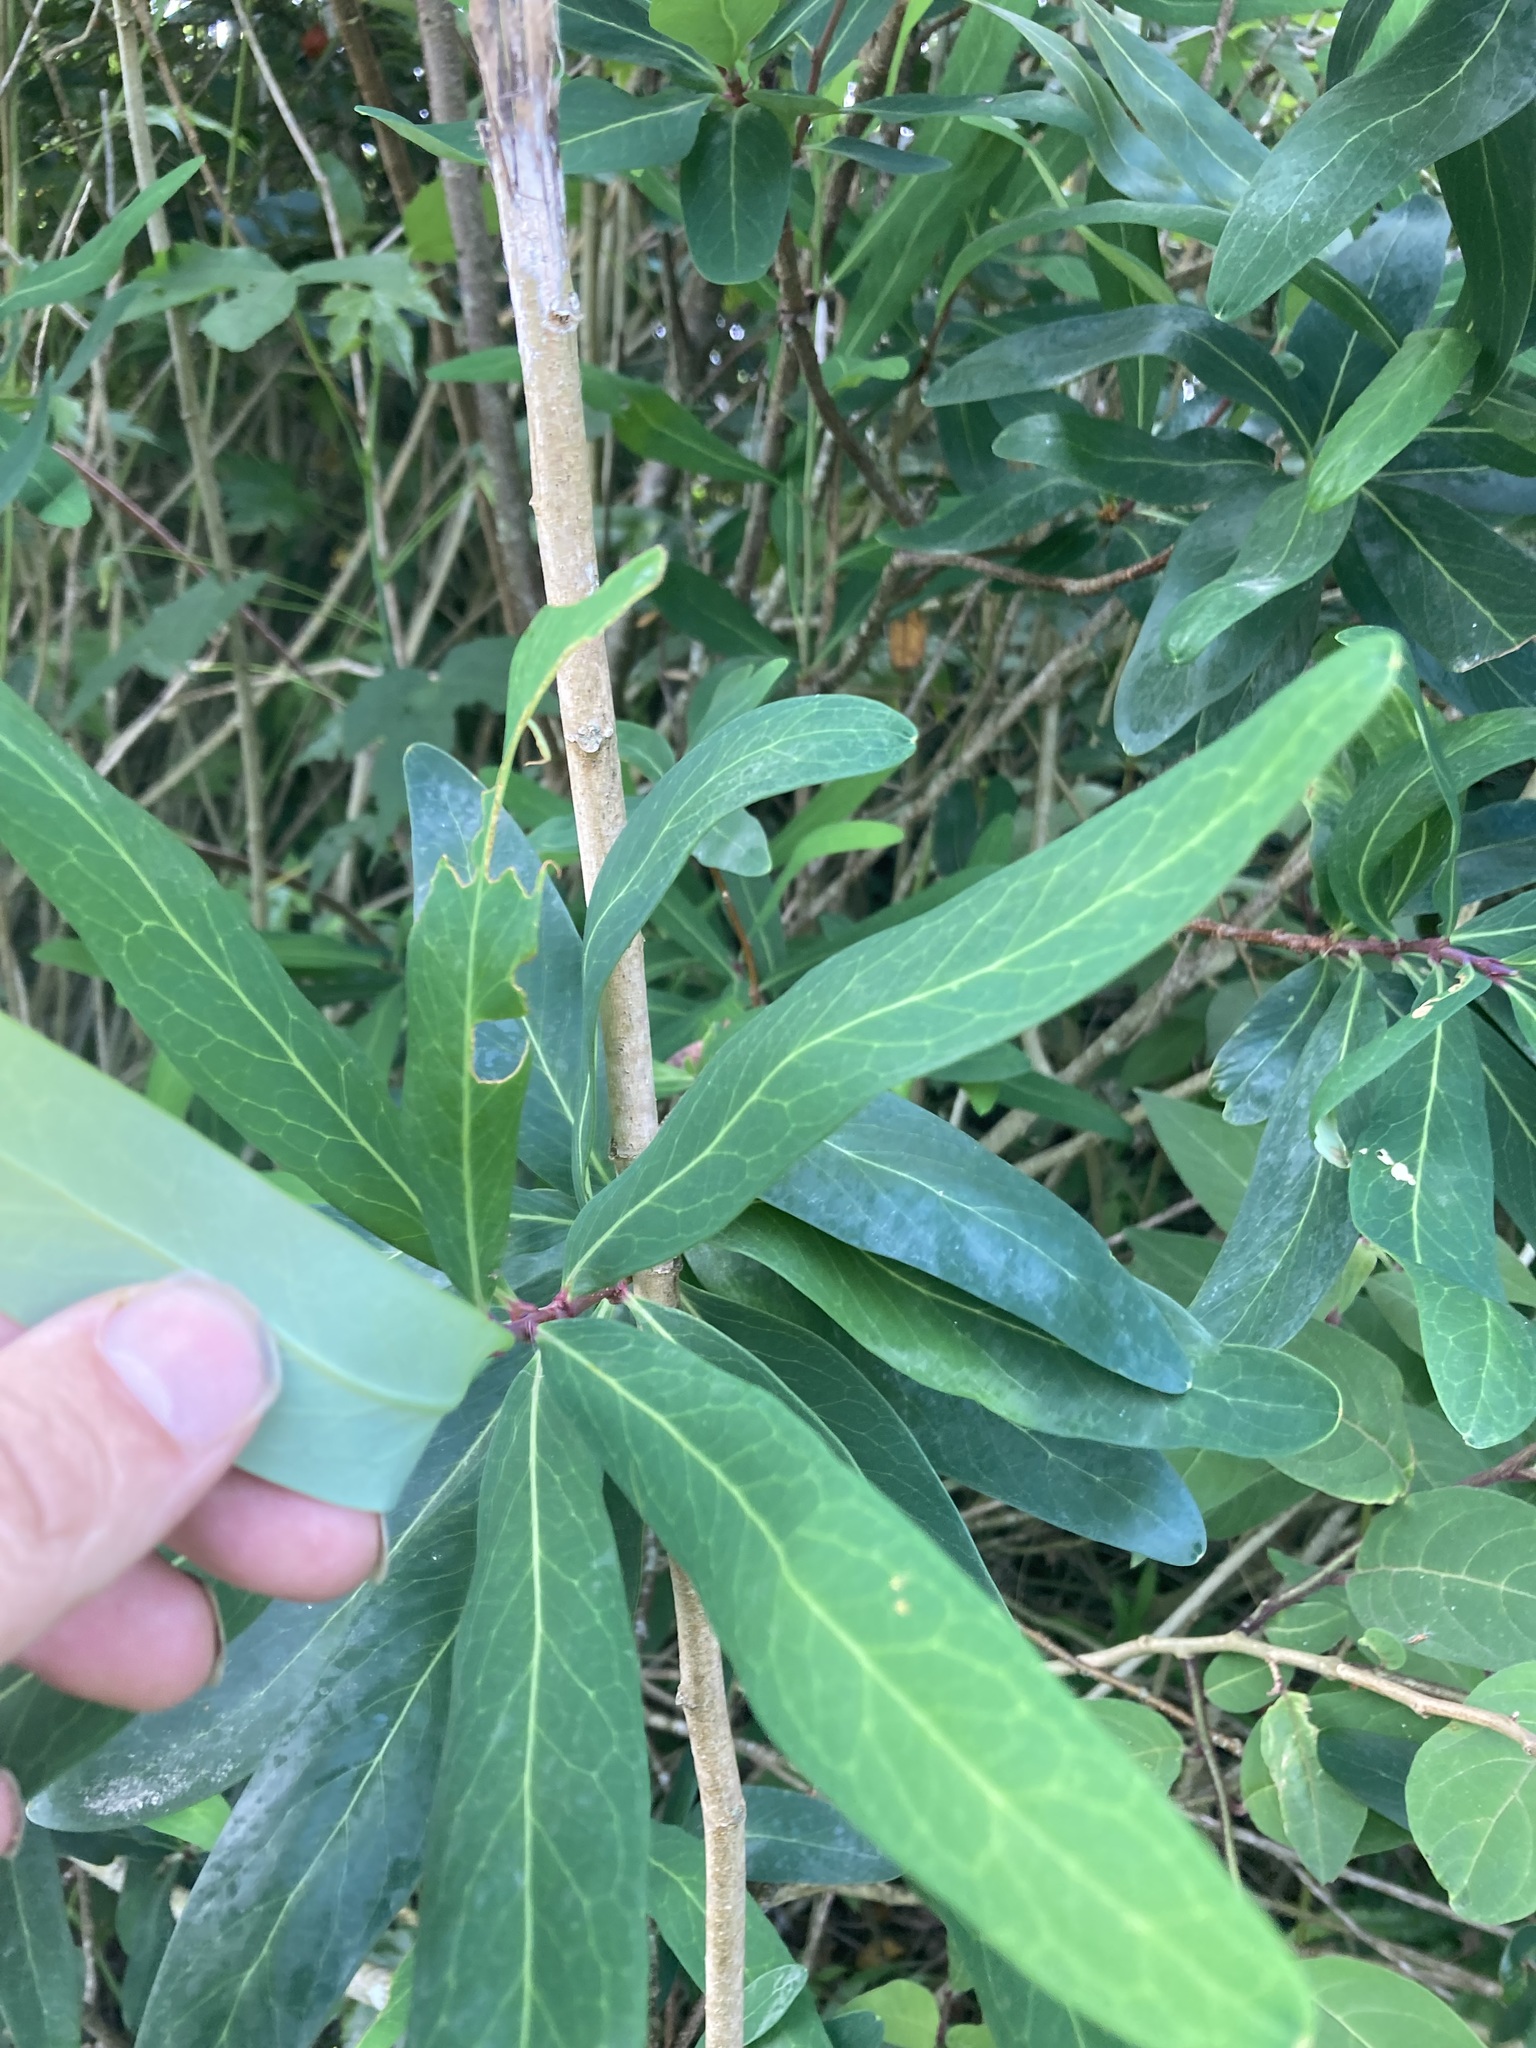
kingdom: Plantae
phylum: Tracheophyta
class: Magnoliopsida
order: Proteales
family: Proteaceae
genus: Embothrium
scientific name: Embothrium coccineum
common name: Chilean firebush
